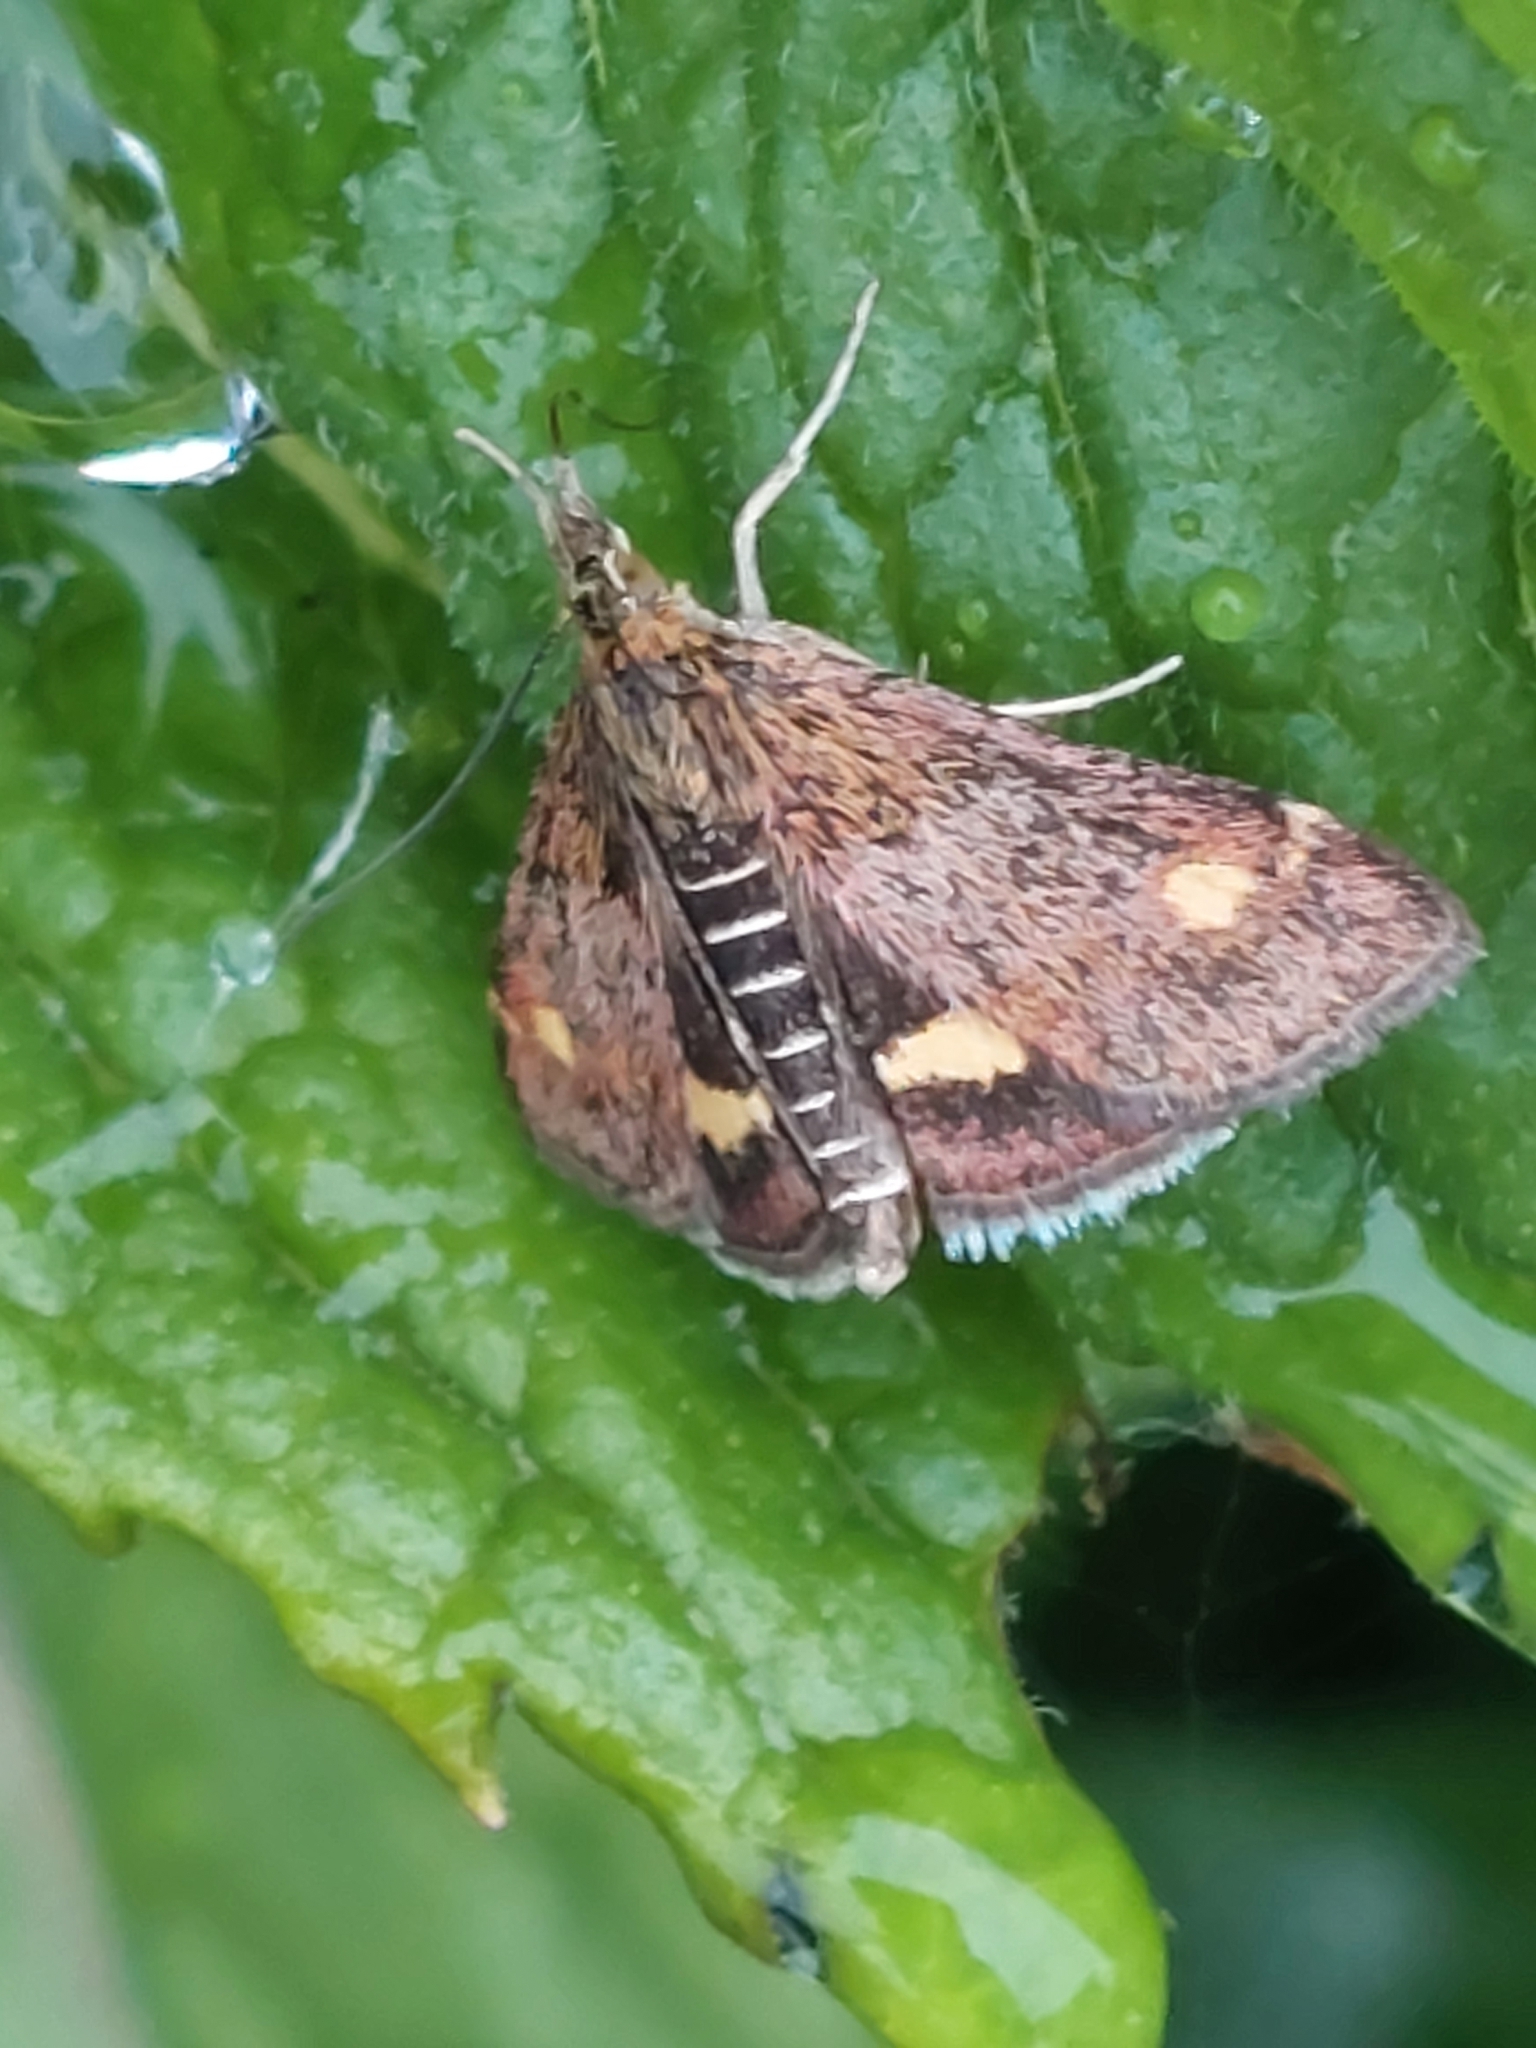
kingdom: Animalia
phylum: Arthropoda
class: Insecta
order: Lepidoptera
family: Crambidae
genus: Pyrausta
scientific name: Pyrausta aurata
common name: Small purple & gold
